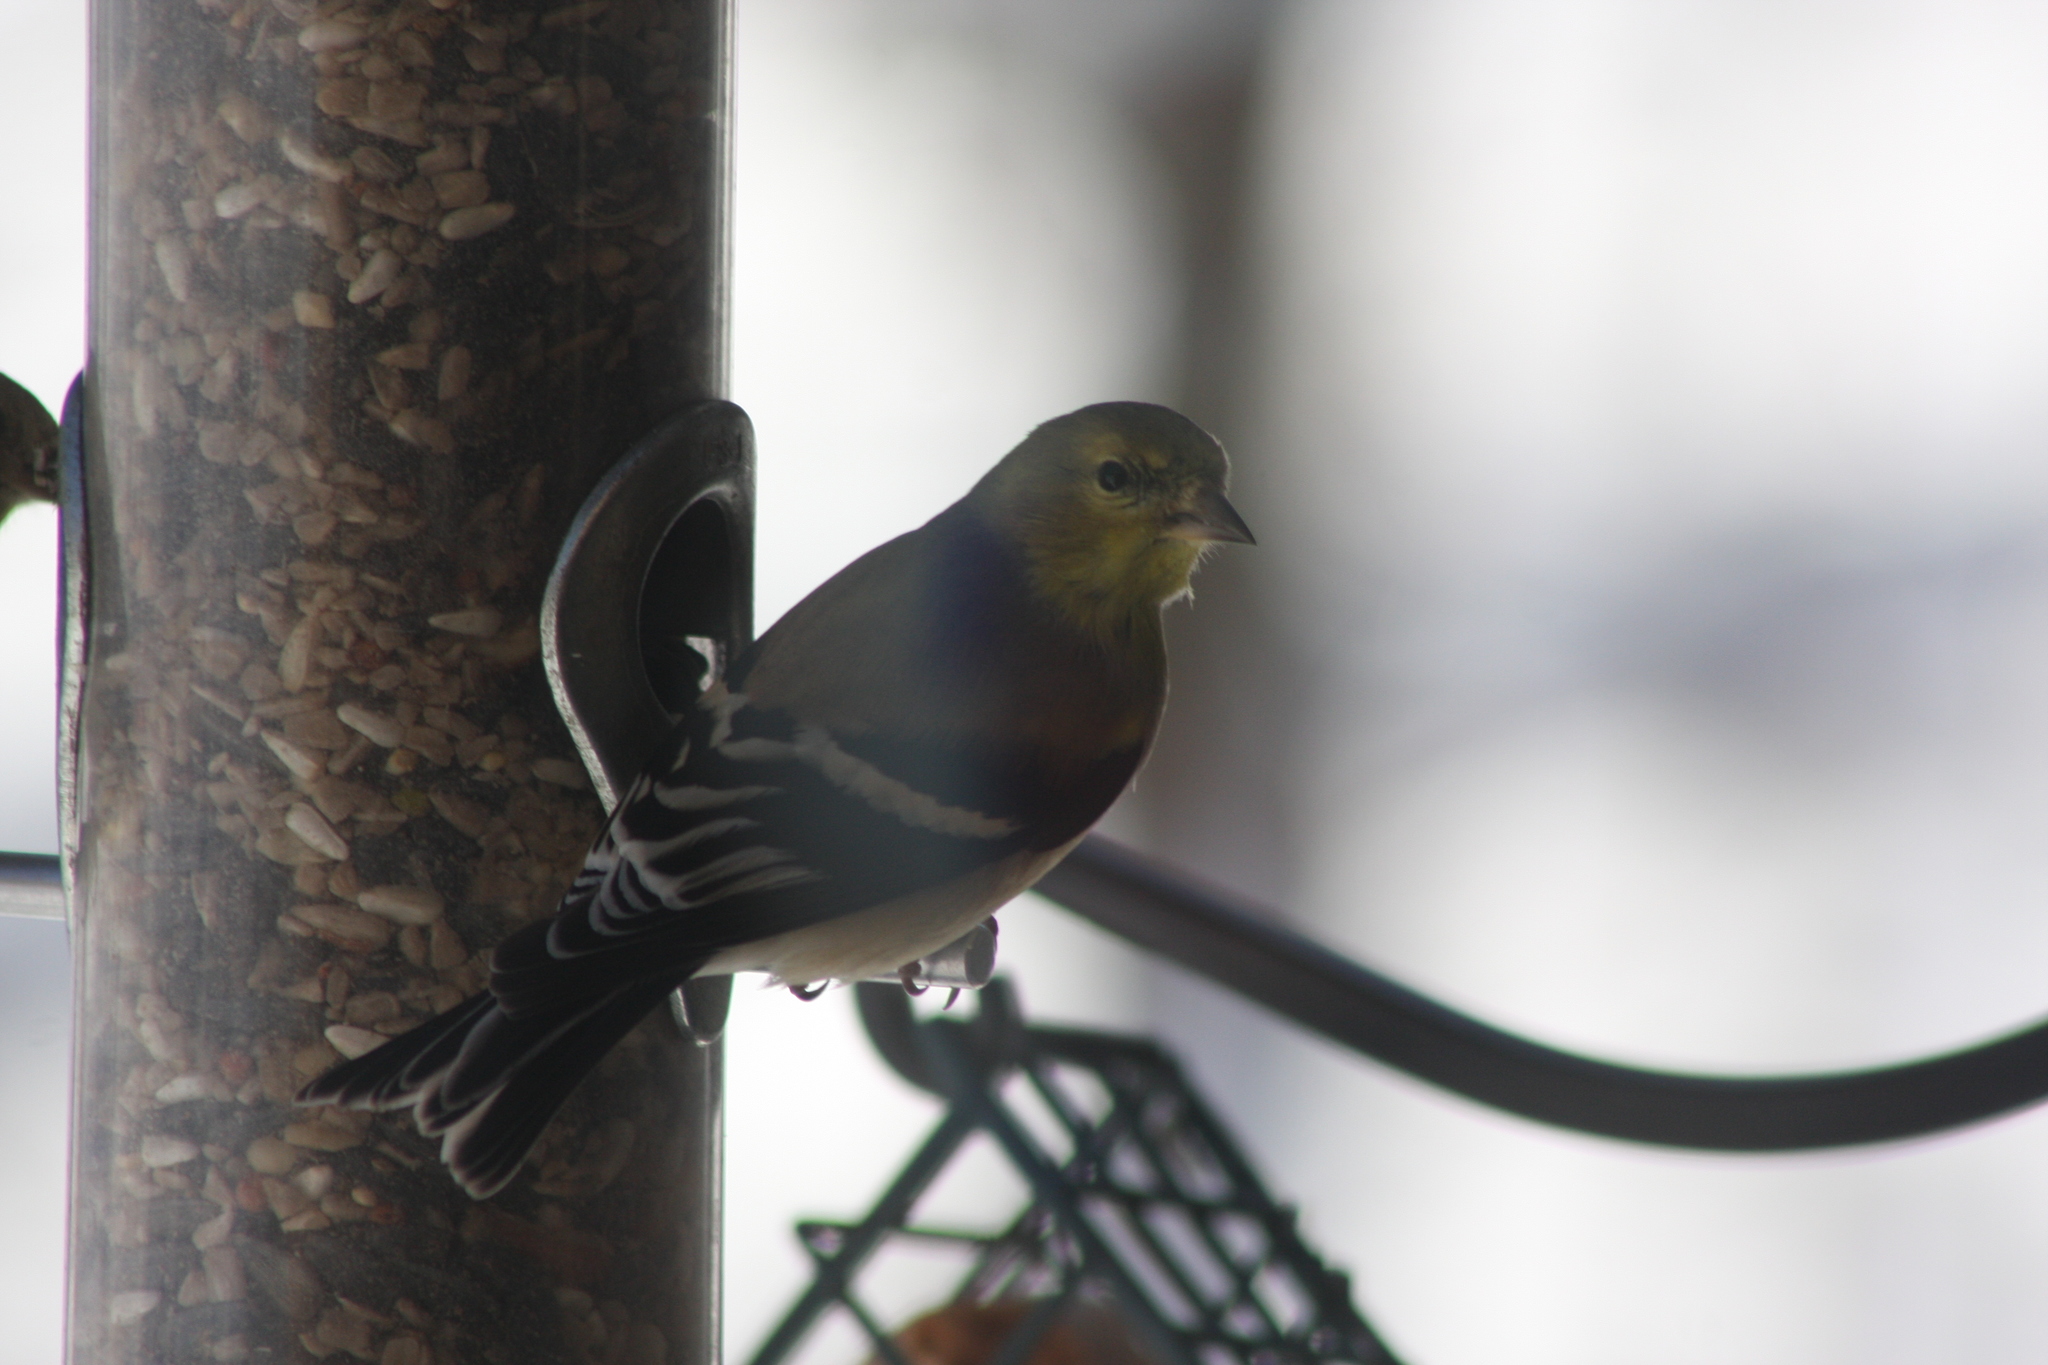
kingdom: Animalia
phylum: Chordata
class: Aves
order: Passeriformes
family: Fringillidae
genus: Spinus
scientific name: Spinus tristis
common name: American goldfinch
